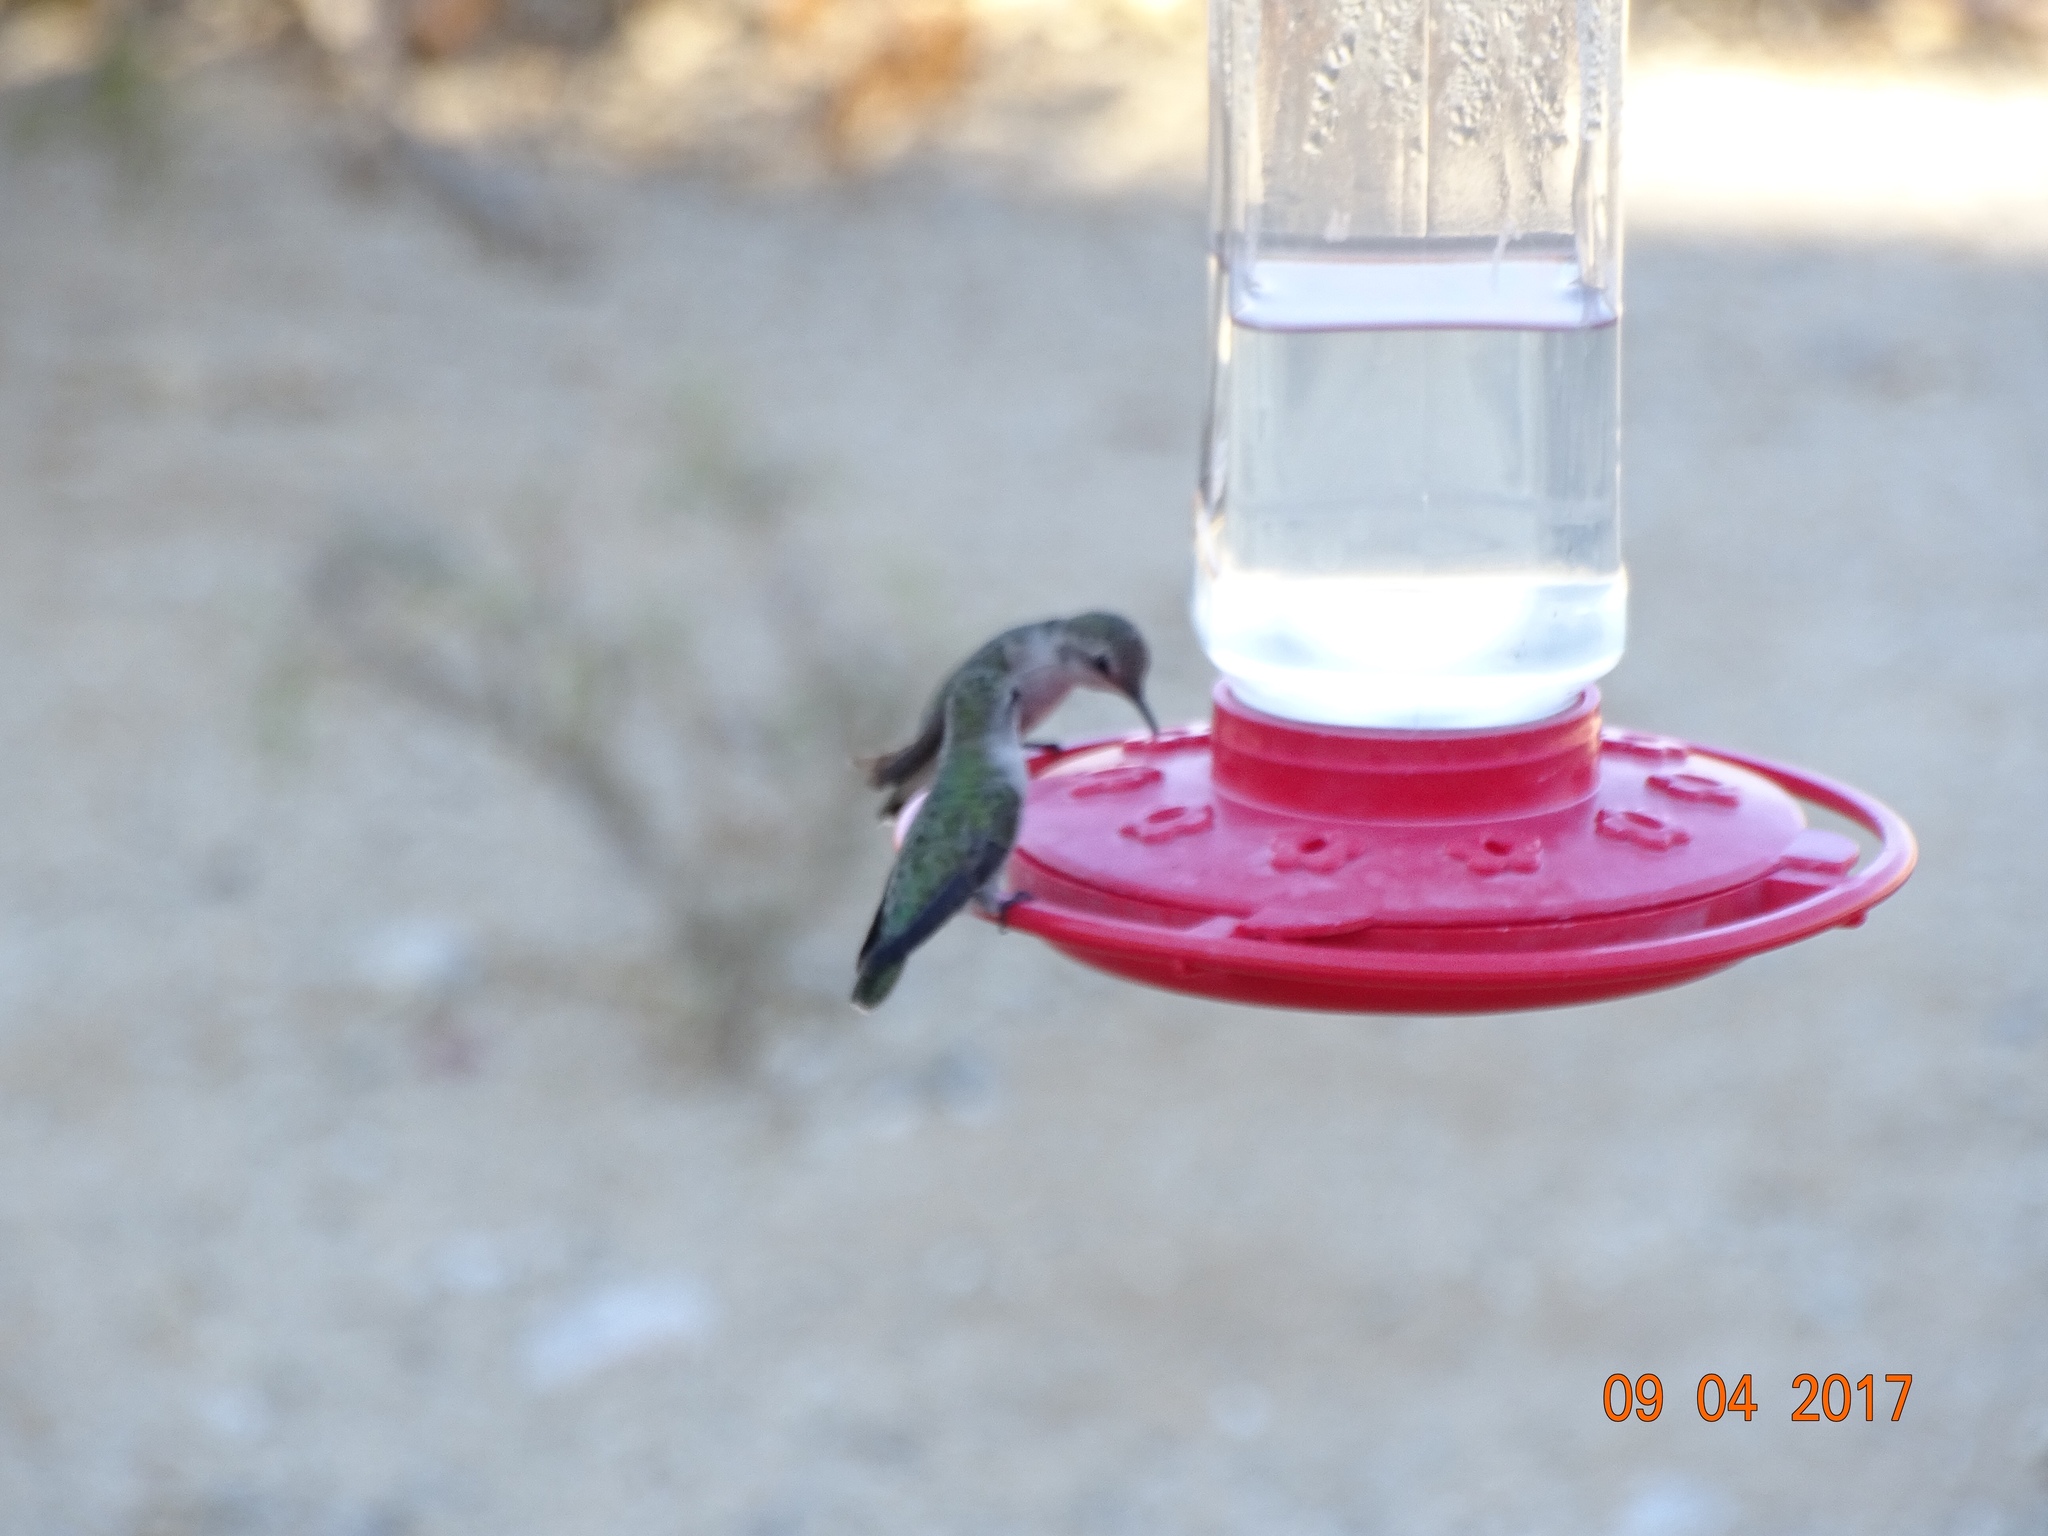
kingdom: Animalia
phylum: Chordata
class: Aves
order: Apodiformes
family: Trochilidae
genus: Calypte
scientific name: Calypte costae
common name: Costa's hummingbird
